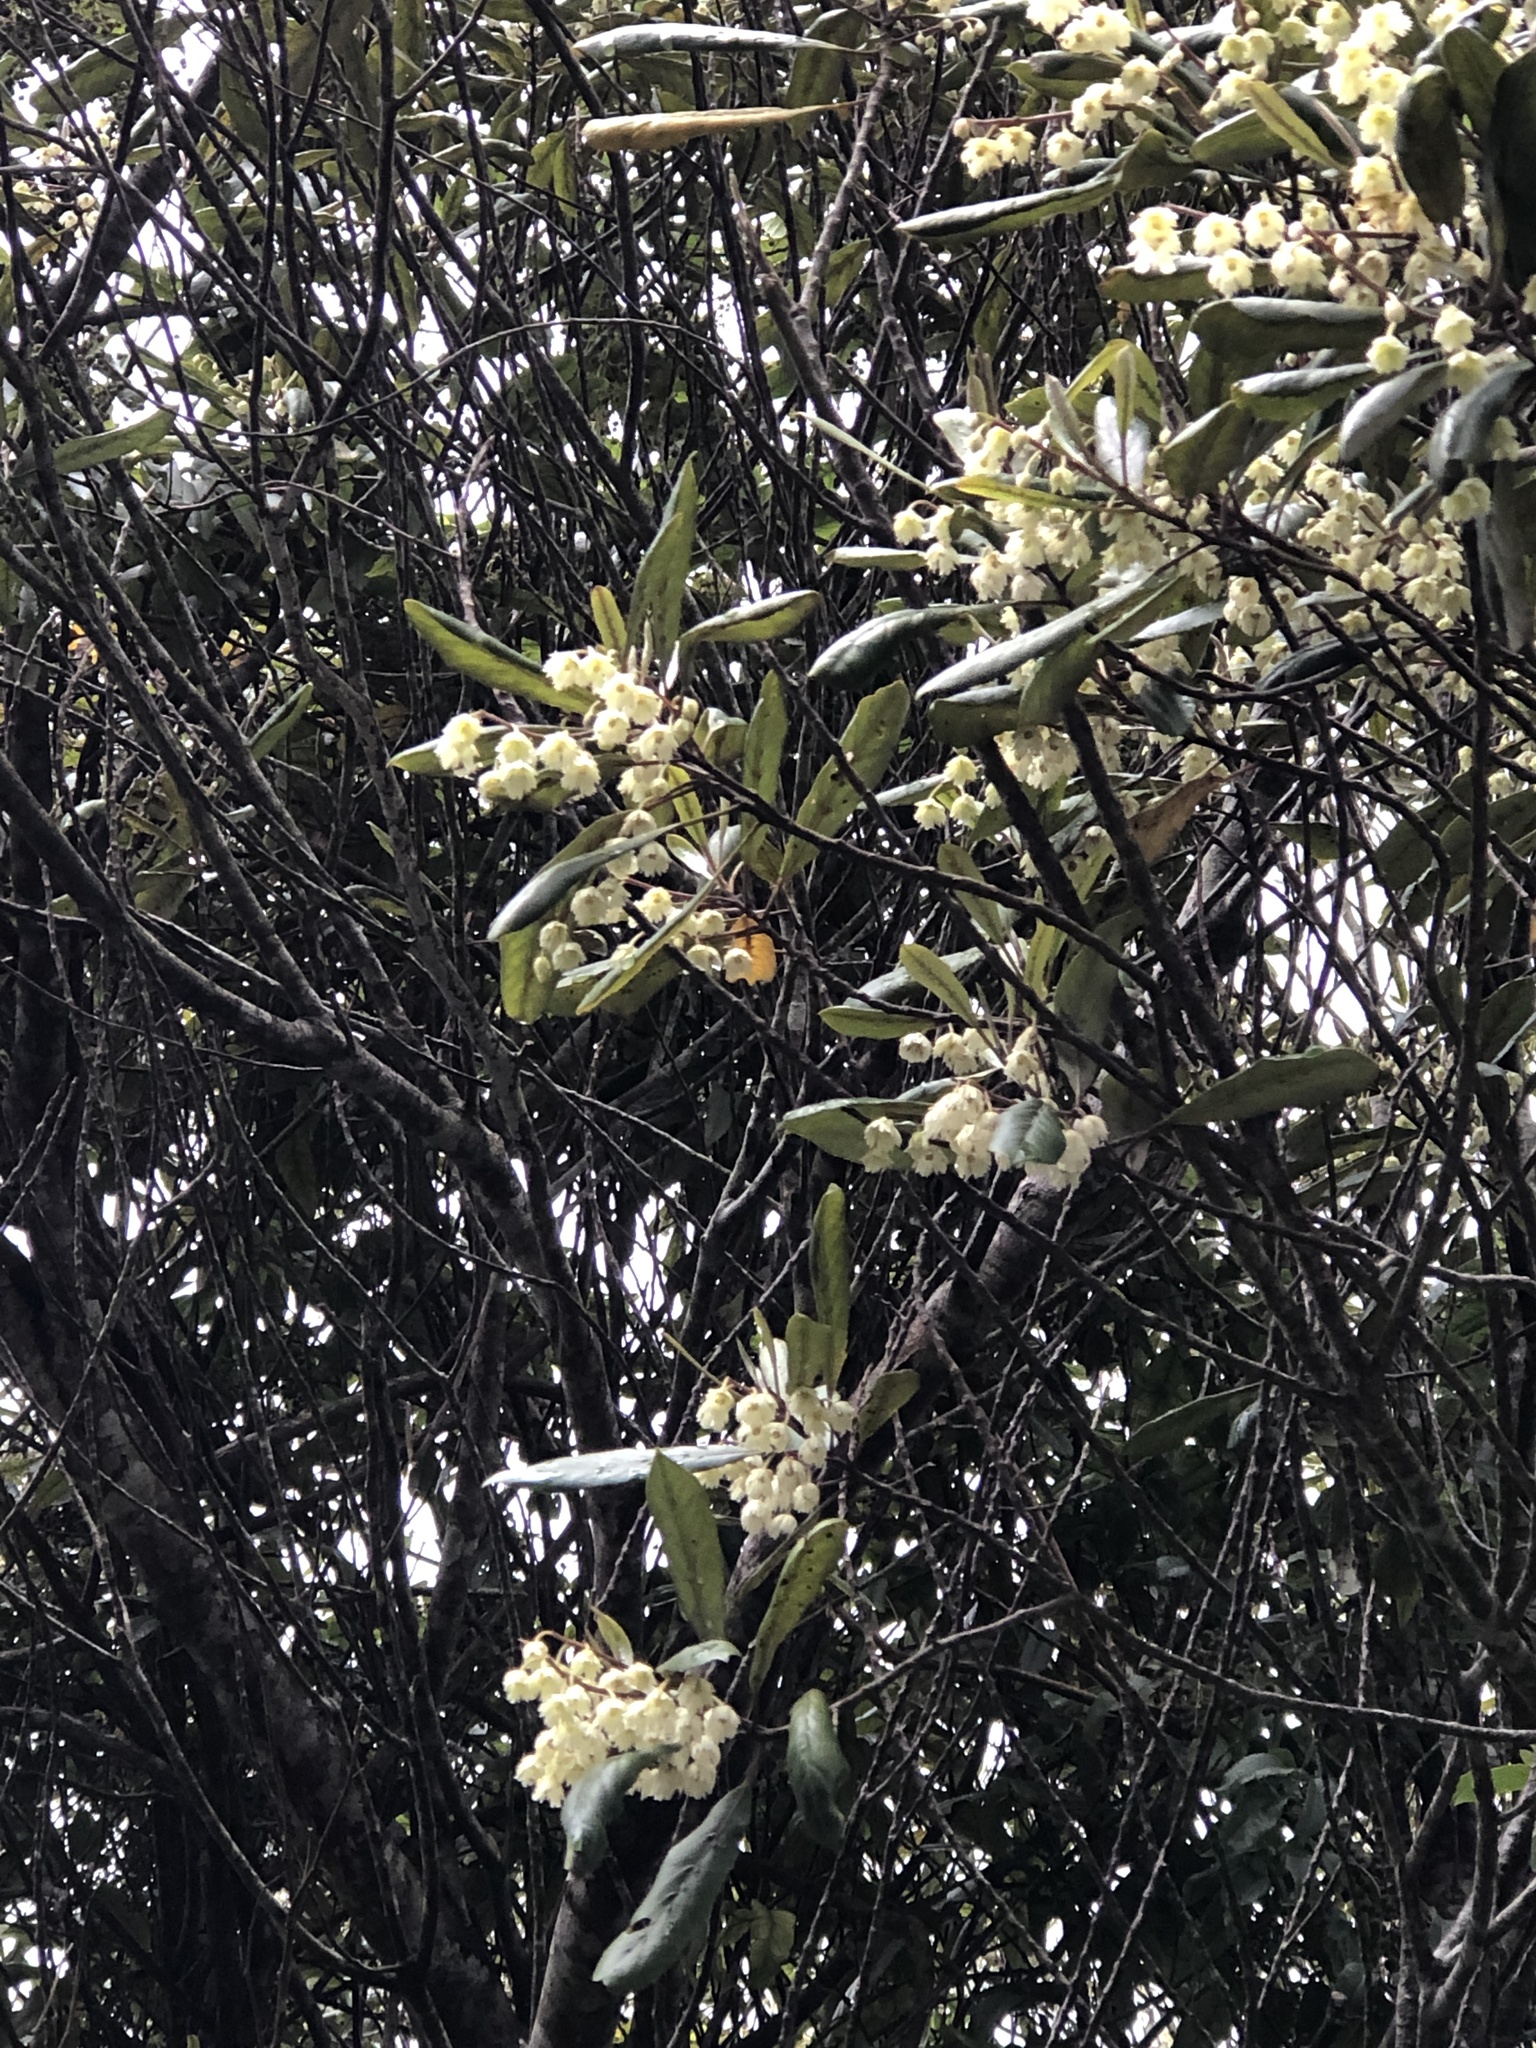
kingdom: Plantae
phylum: Tracheophyta
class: Magnoliopsida
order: Oxalidales
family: Elaeocarpaceae
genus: Elaeocarpus
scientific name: Elaeocarpus dentatus
